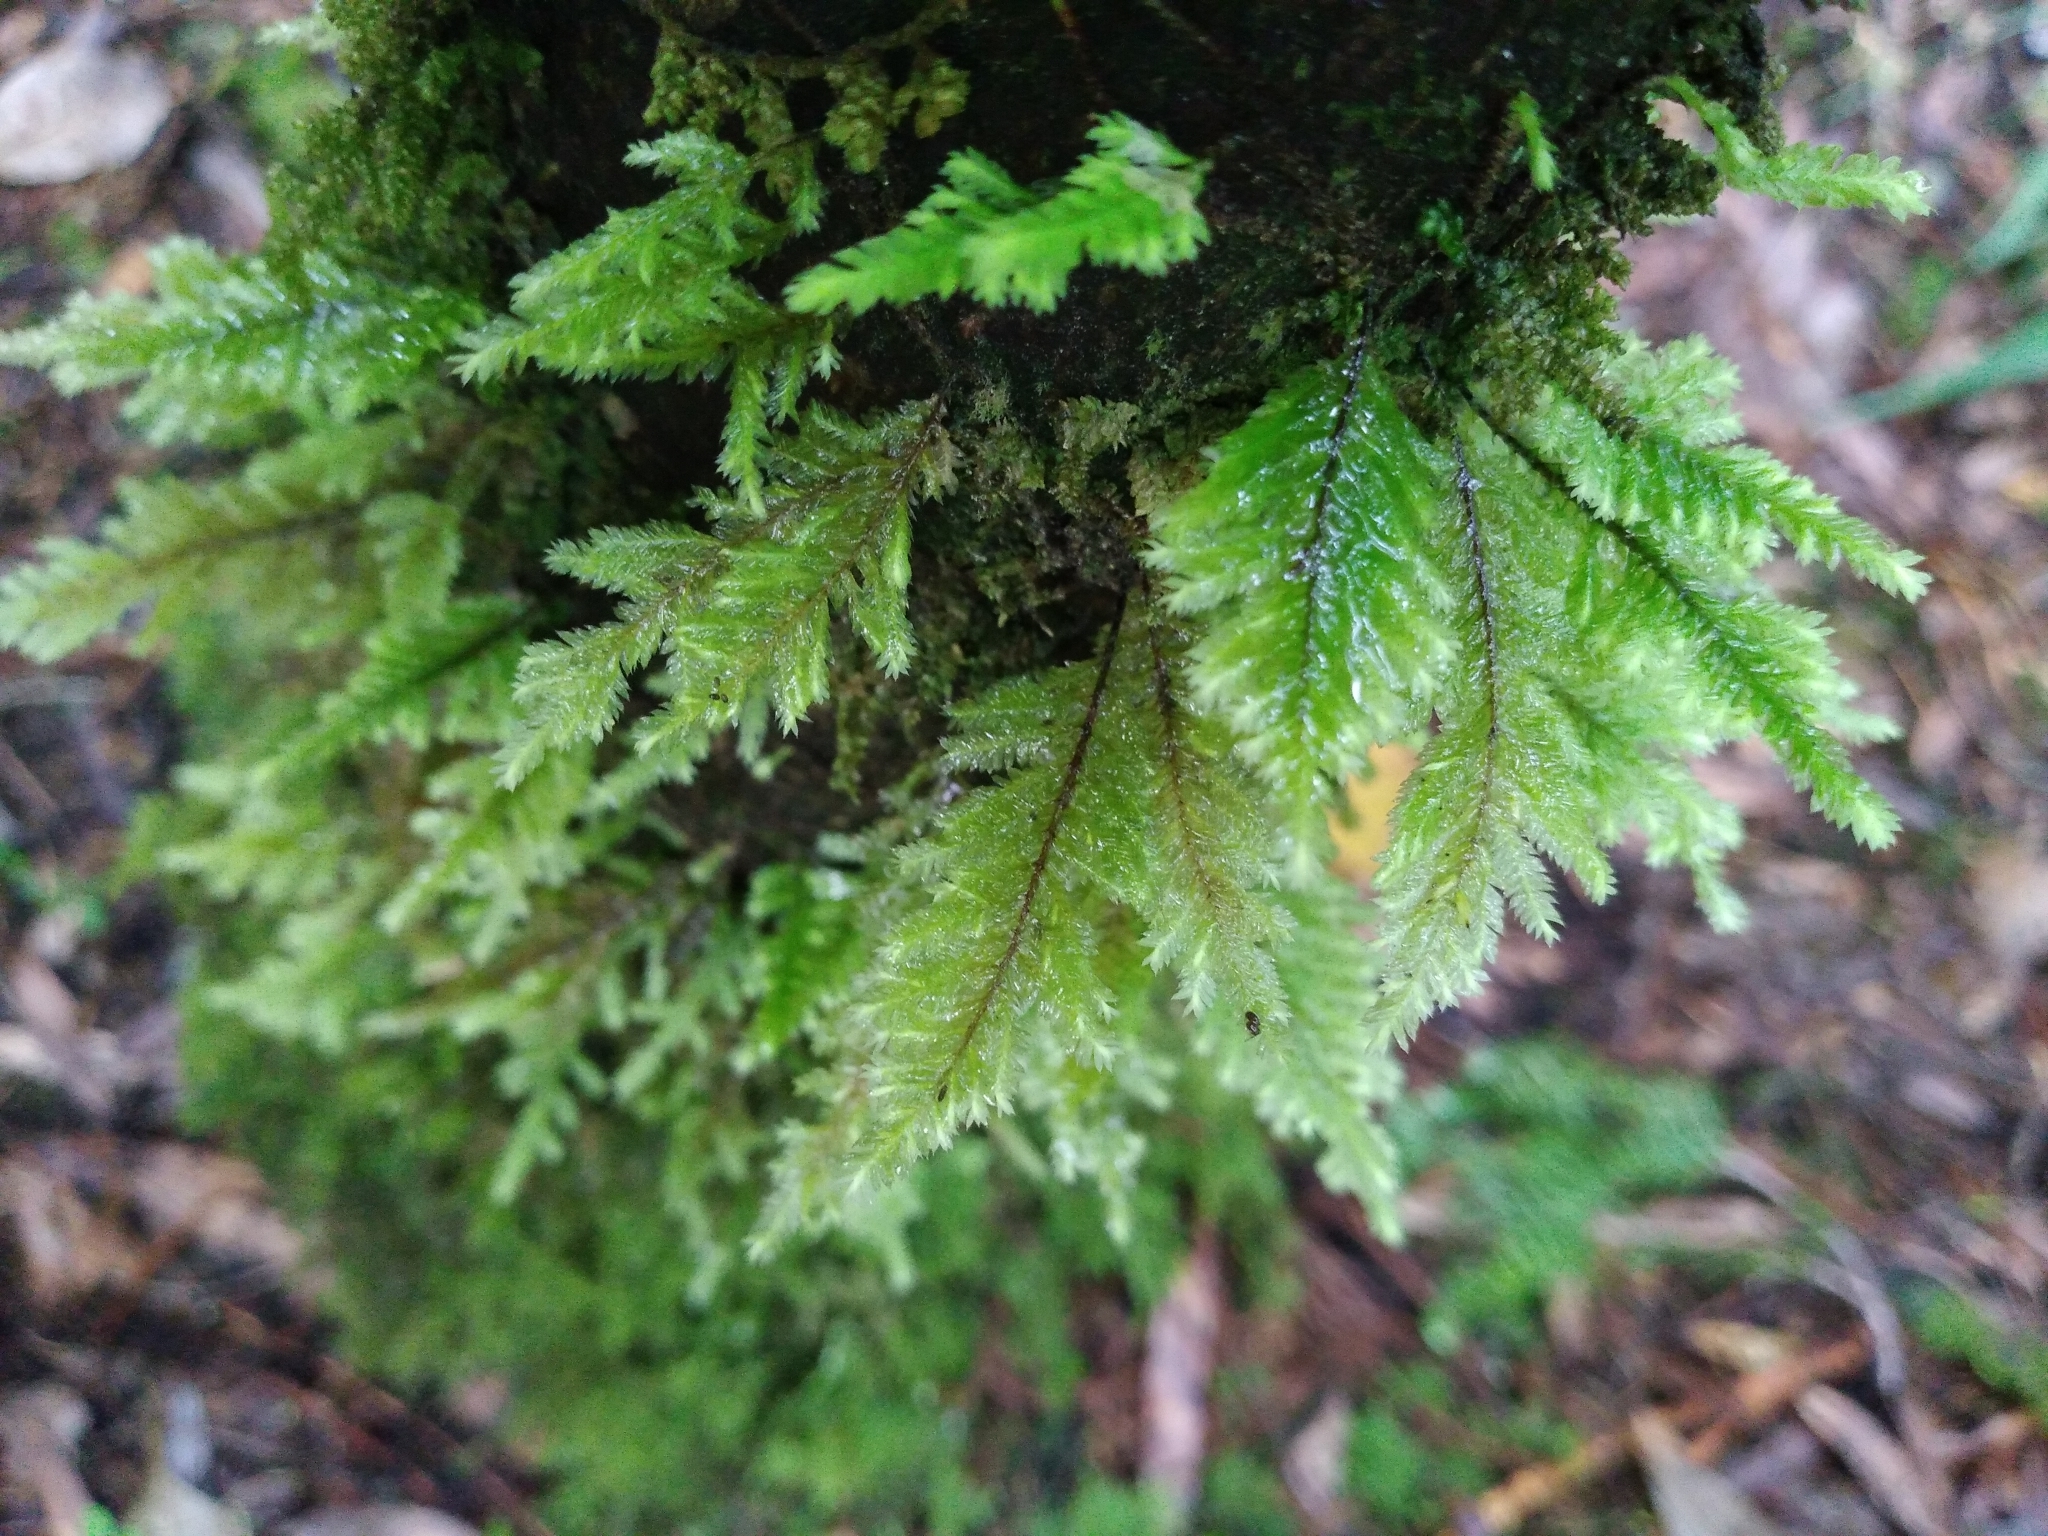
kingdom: Plantae
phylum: Bryophyta
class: Bryopsida
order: Hypopterygiales
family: Hypopterygiaceae
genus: Lopidium
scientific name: Lopidium concinnum
